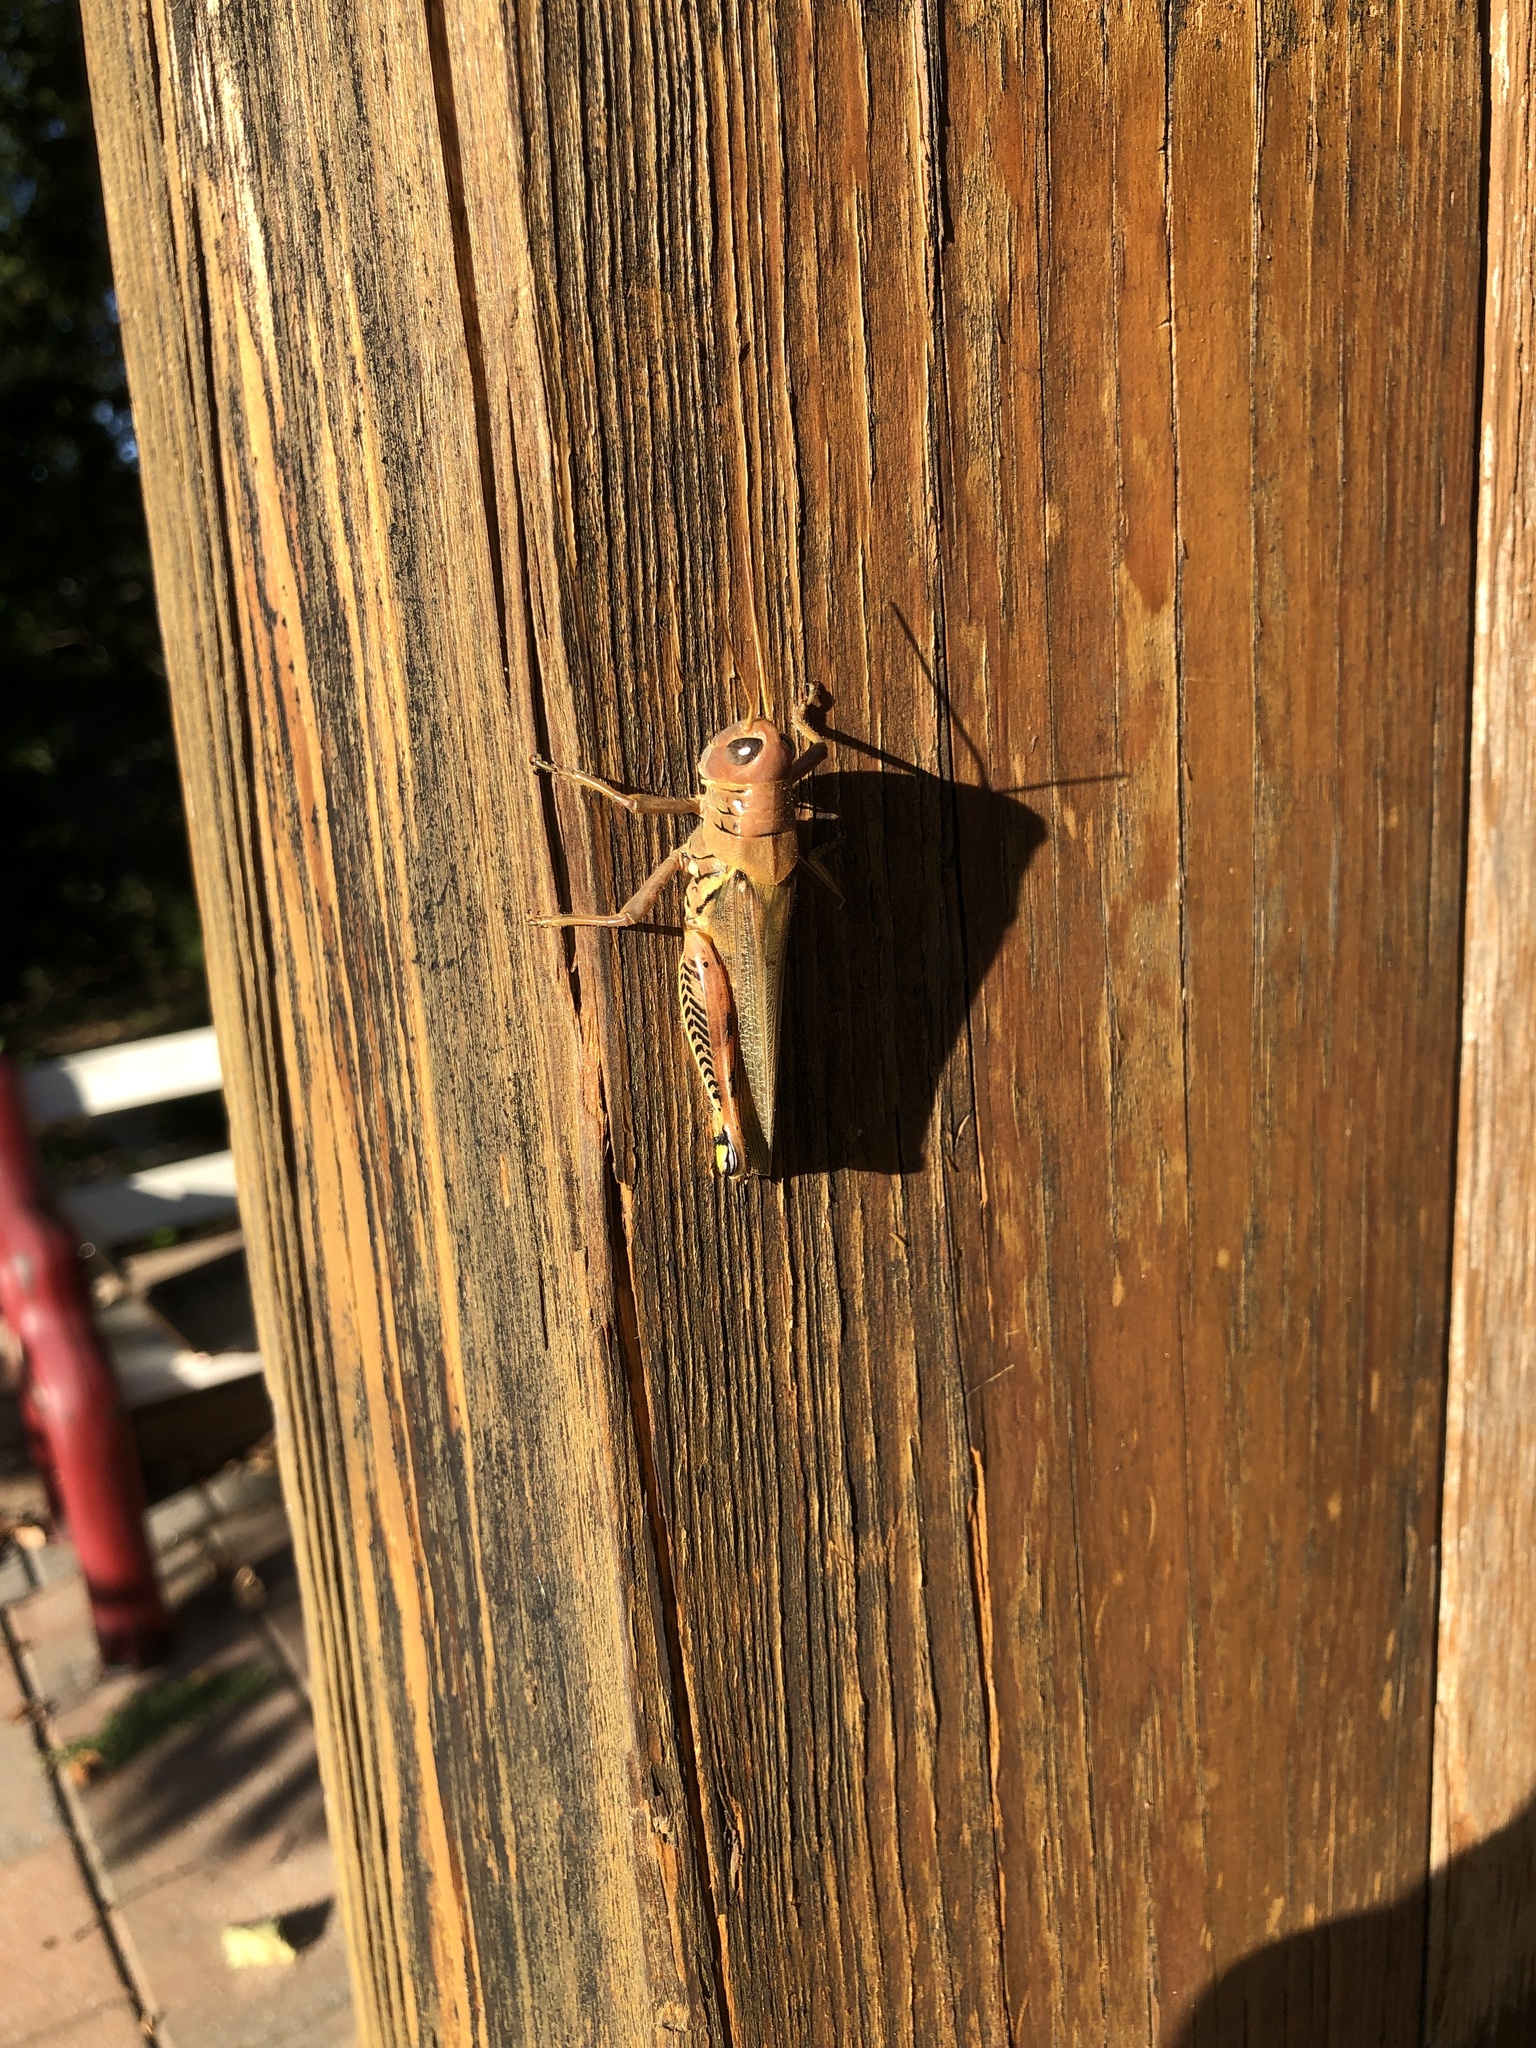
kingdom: Animalia
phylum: Arthropoda
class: Insecta
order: Orthoptera
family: Acrididae
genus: Melanoplus
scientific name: Melanoplus differentialis
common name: Differential grasshopper
